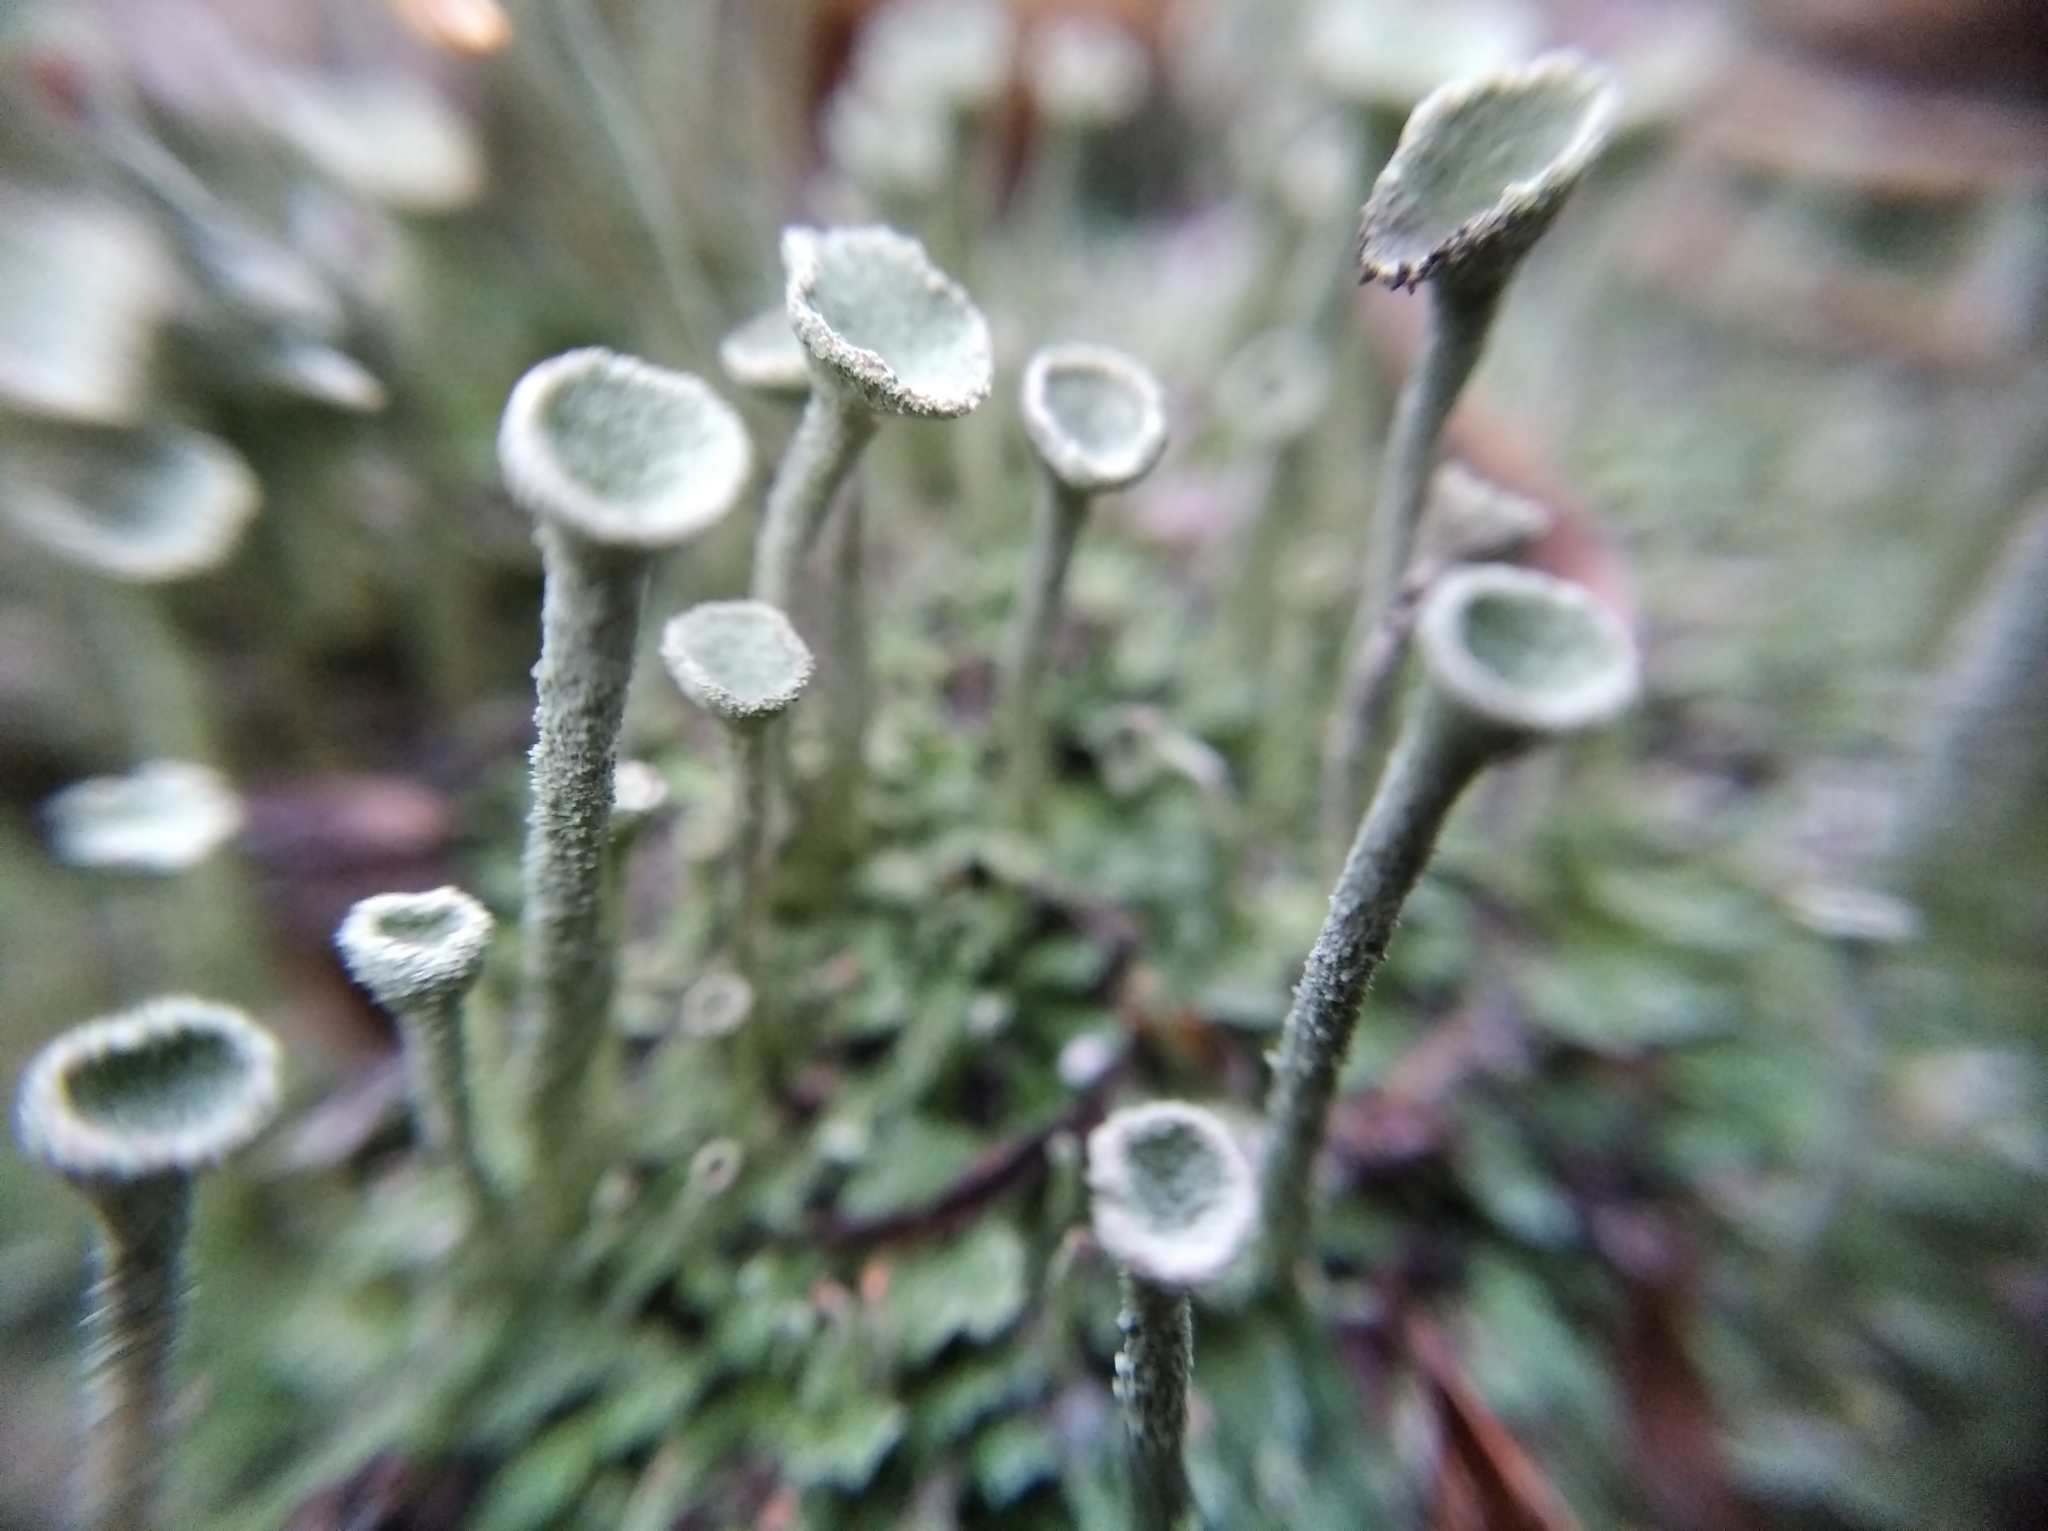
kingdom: Fungi
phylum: Ascomycota
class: Lecanoromycetes
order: Lecanorales
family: Cladoniaceae
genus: Cladonia
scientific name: Cladonia fimbriata
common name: Powdered trumpet lichen
